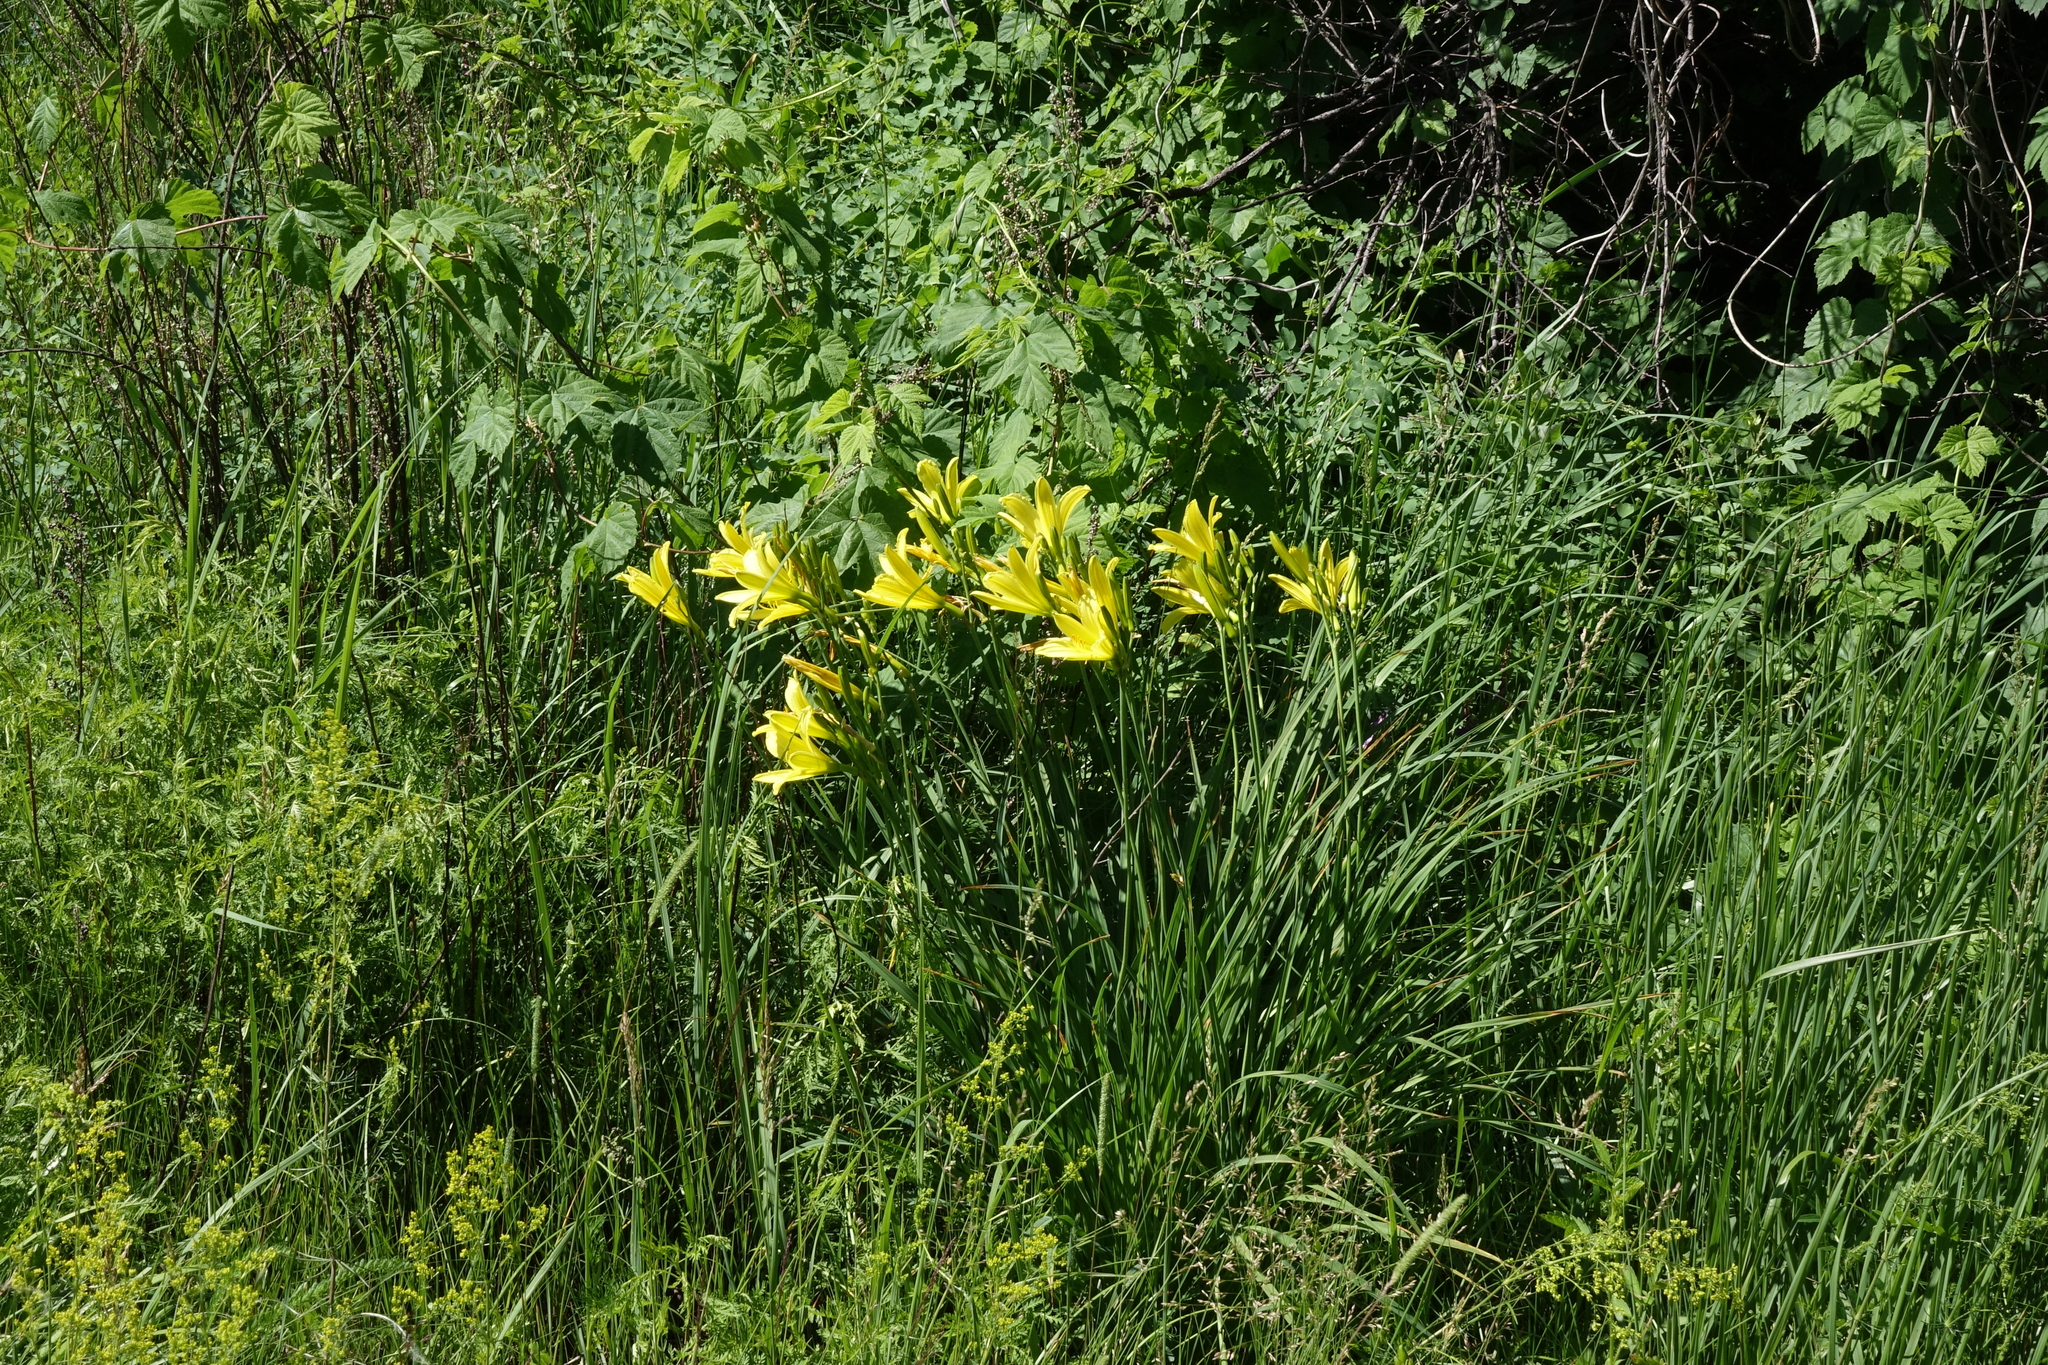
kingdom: Plantae
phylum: Tracheophyta
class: Liliopsida
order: Asparagales
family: Asphodelaceae
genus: Hemerocallis
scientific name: Hemerocallis minor
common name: Small daylily
